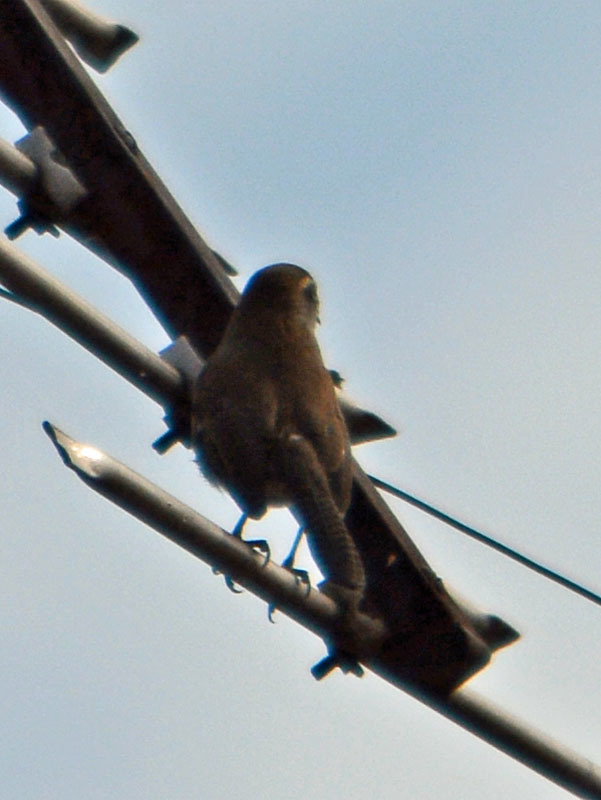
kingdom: Animalia
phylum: Chordata
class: Aves
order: Passeriformes
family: Troglodytidae
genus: Thryomanes
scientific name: Thryomanes bewickii
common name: Bewick's wren
